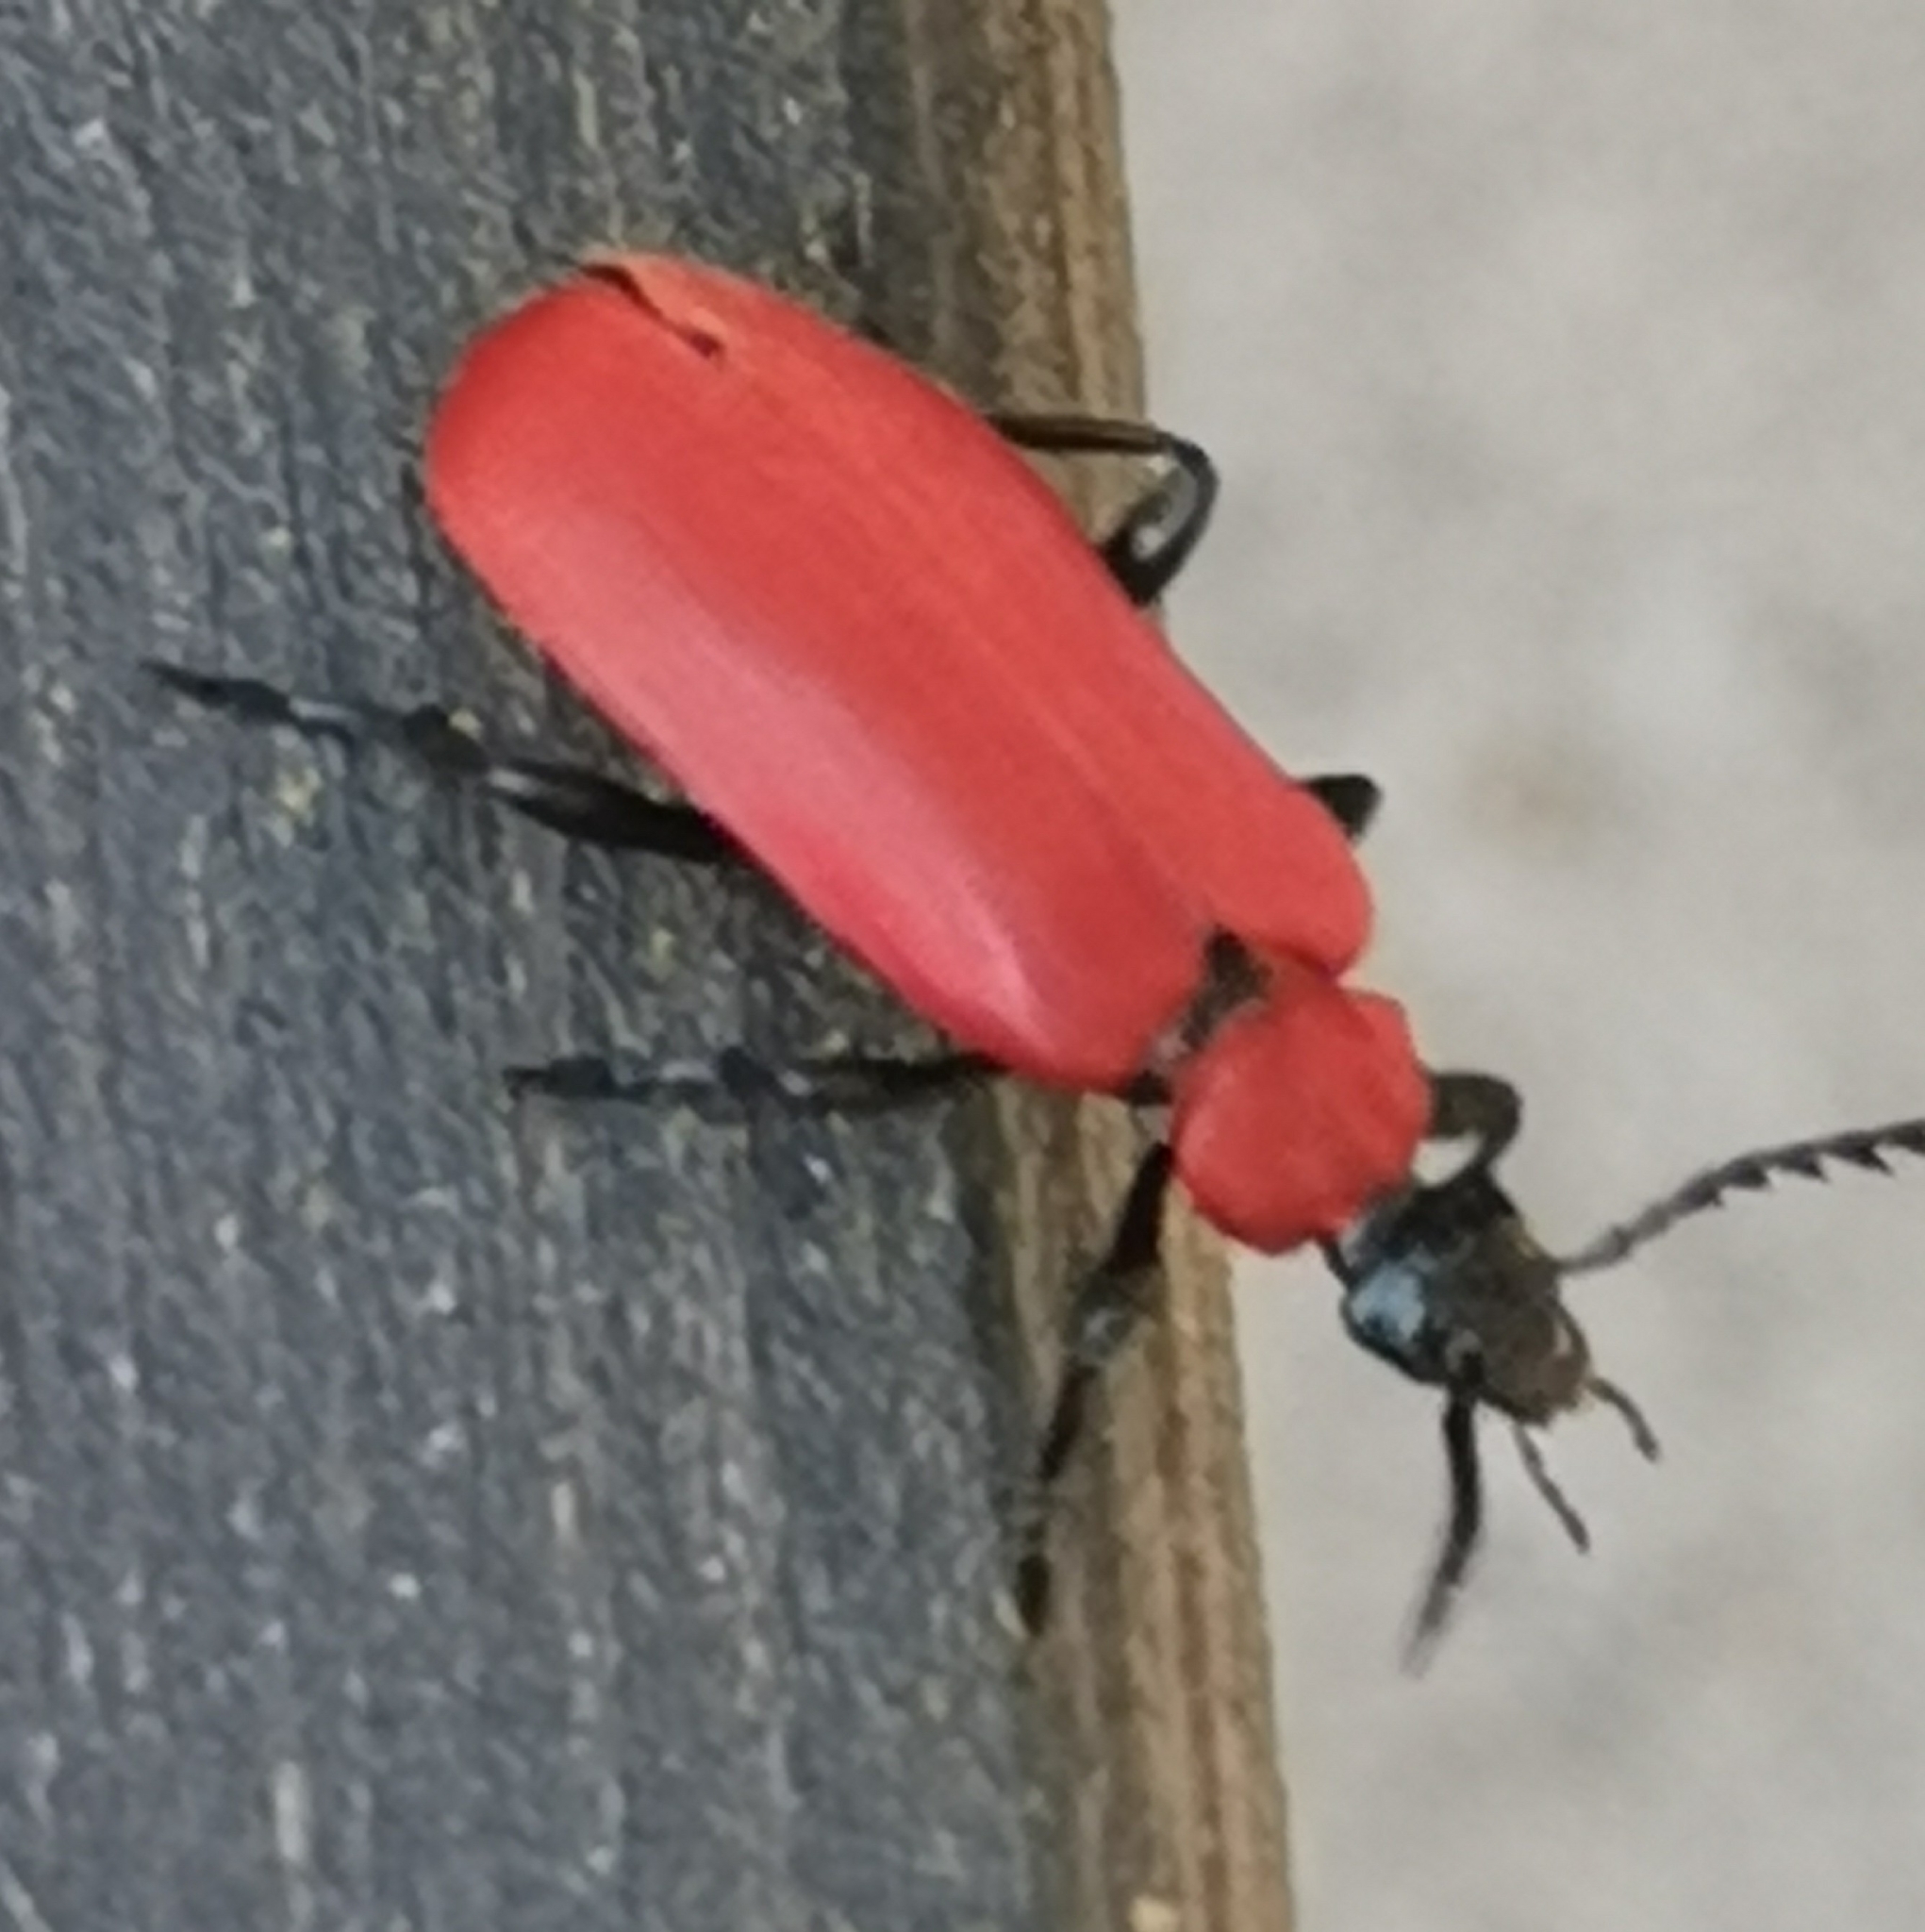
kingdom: Animalia
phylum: Arthropoda
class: Insecta
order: Coleoptera
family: Pyrochroidae
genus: Pyrochroa
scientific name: Pyrochroa coccinea
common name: Black-headed cardinal beetle
